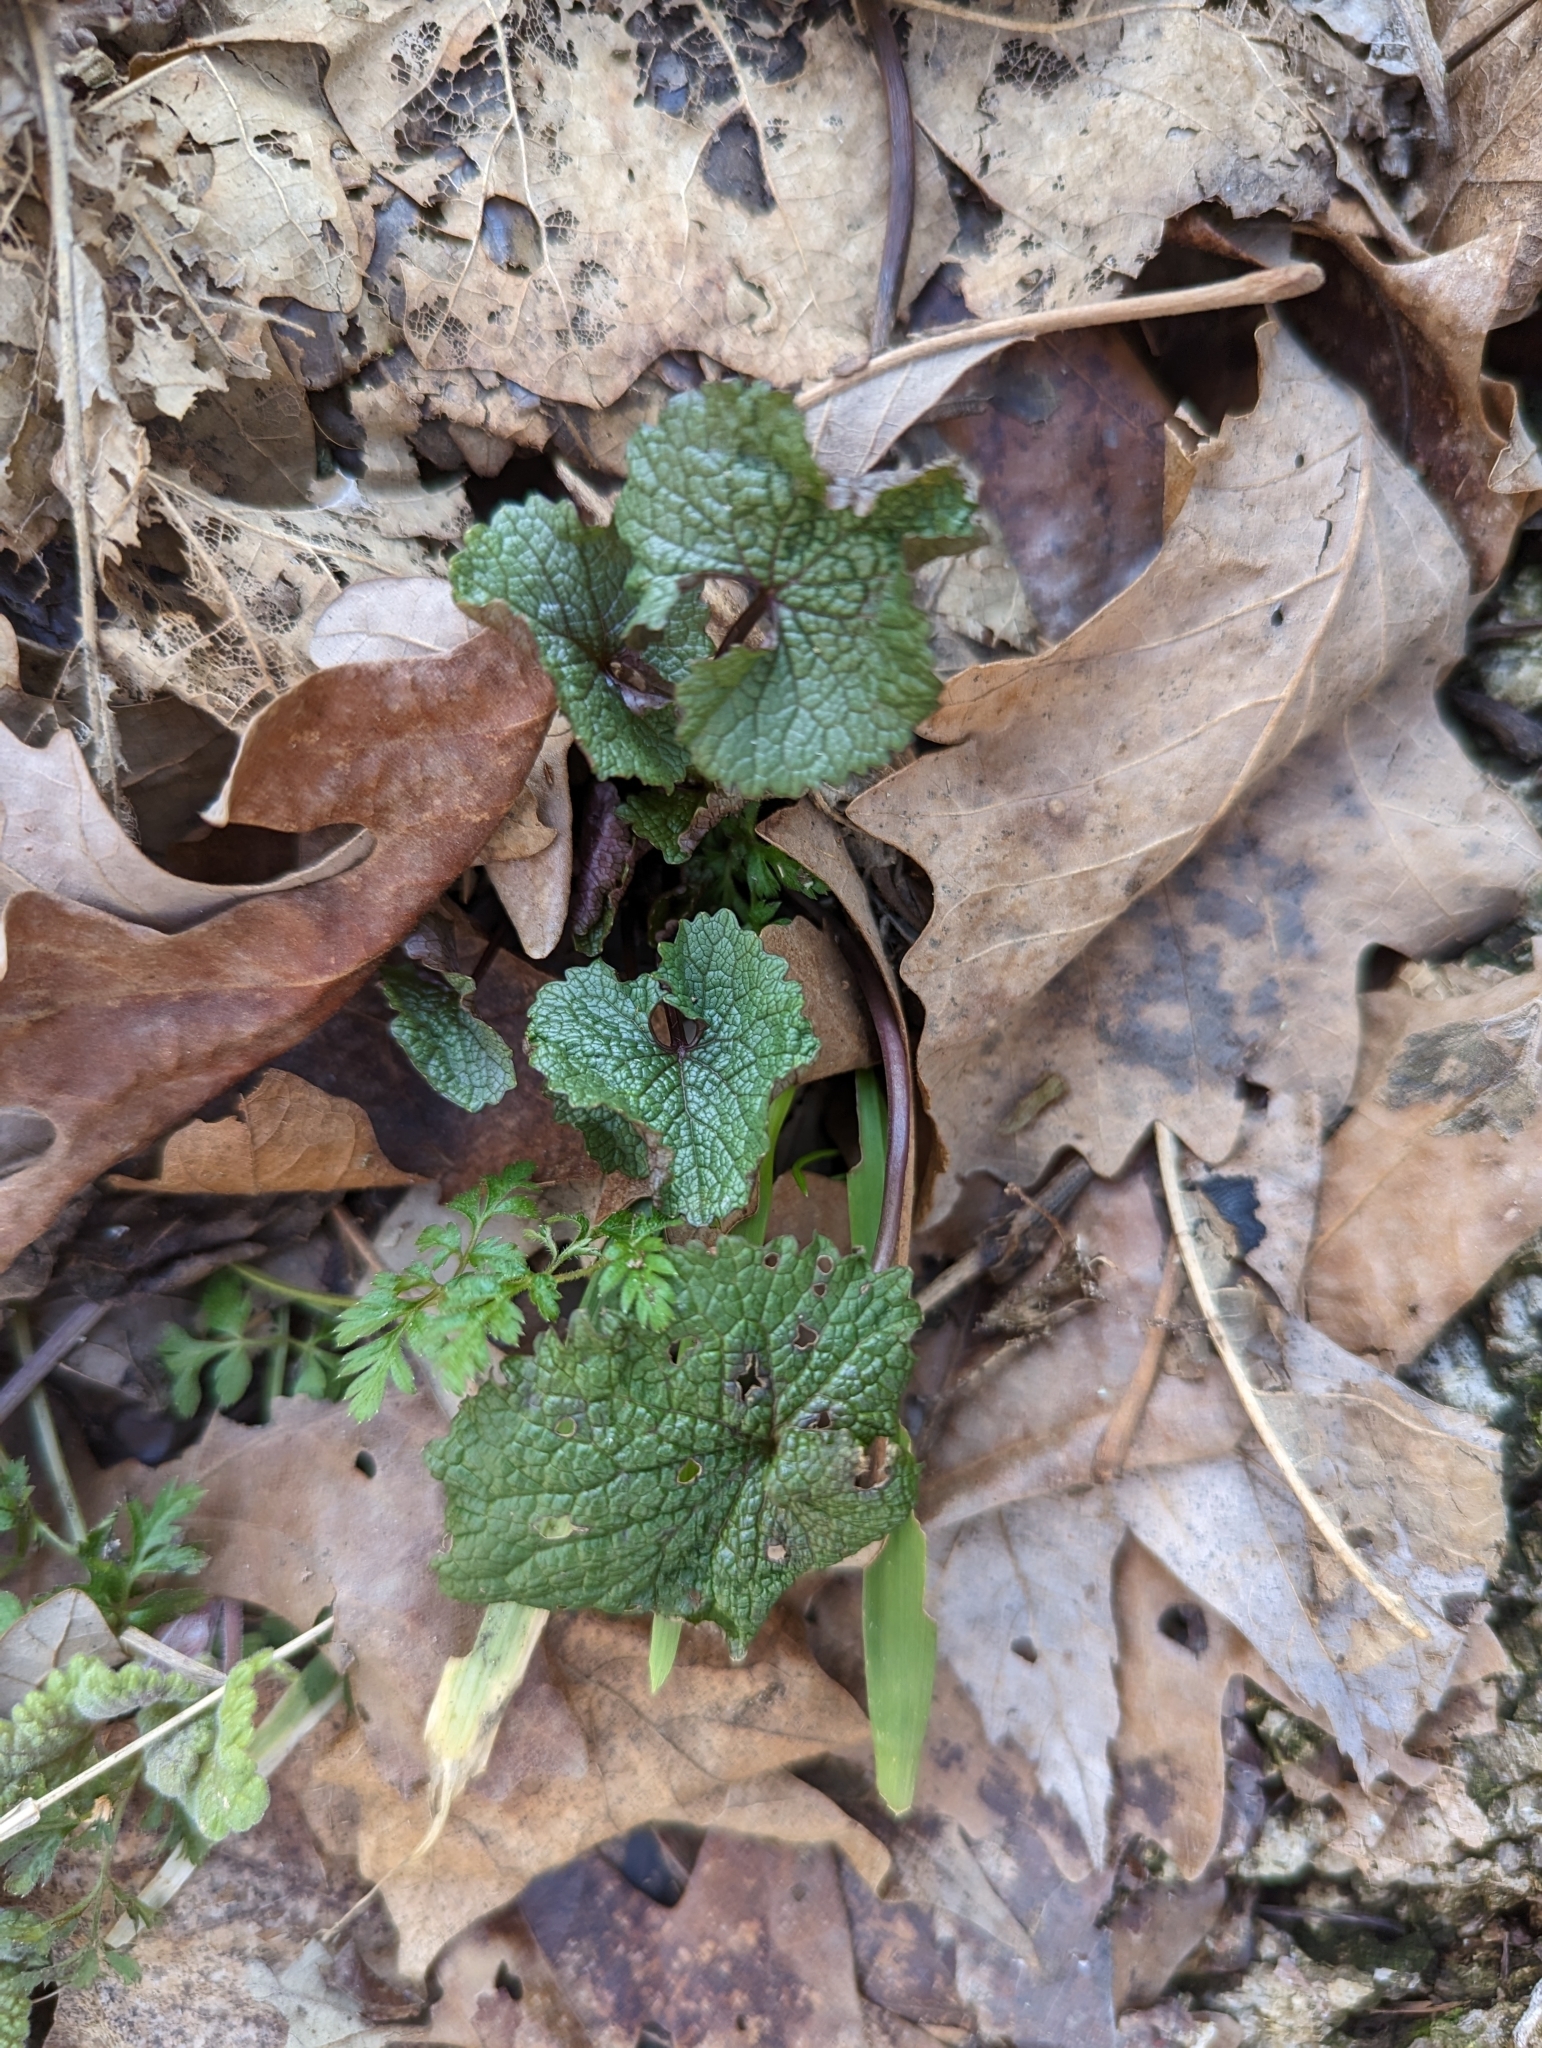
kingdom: Plantae
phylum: Tracheophyta
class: Magnoliopsida
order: Brassicales
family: Brassicaceae
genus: Alliaria
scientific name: Alliaria petiolata
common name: Garlic mustard
